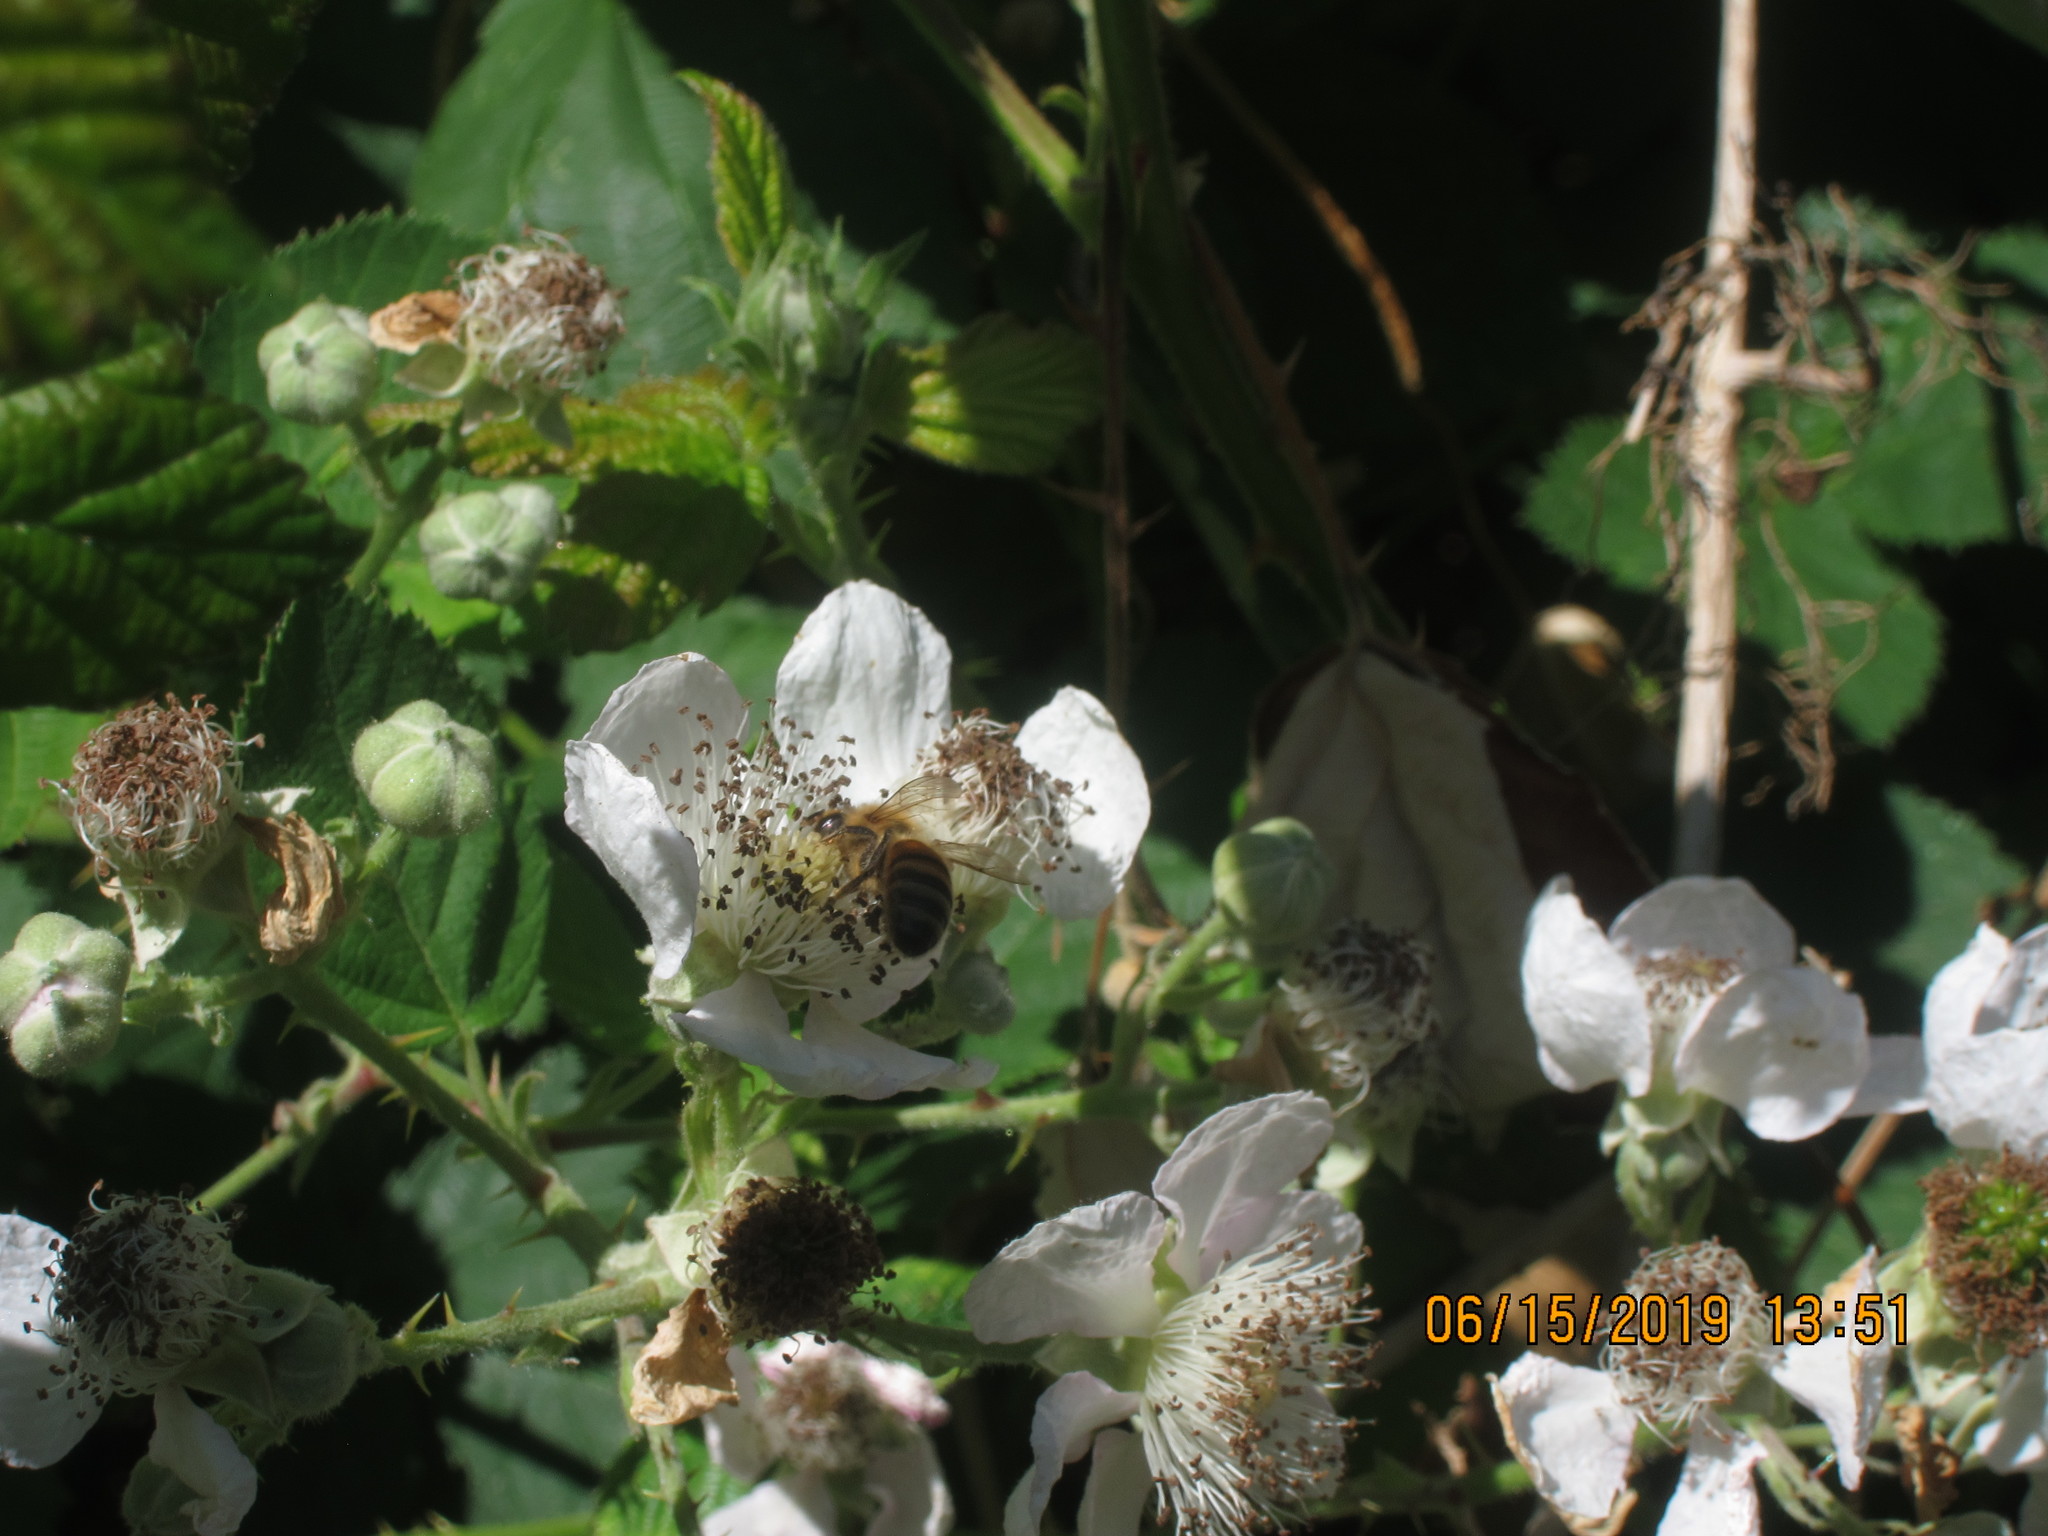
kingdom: Animalia
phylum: Arthropoda
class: Insecta
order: Hymenoptera
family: Apidae
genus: Apis
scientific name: Apis mellifera
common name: Honey bee
